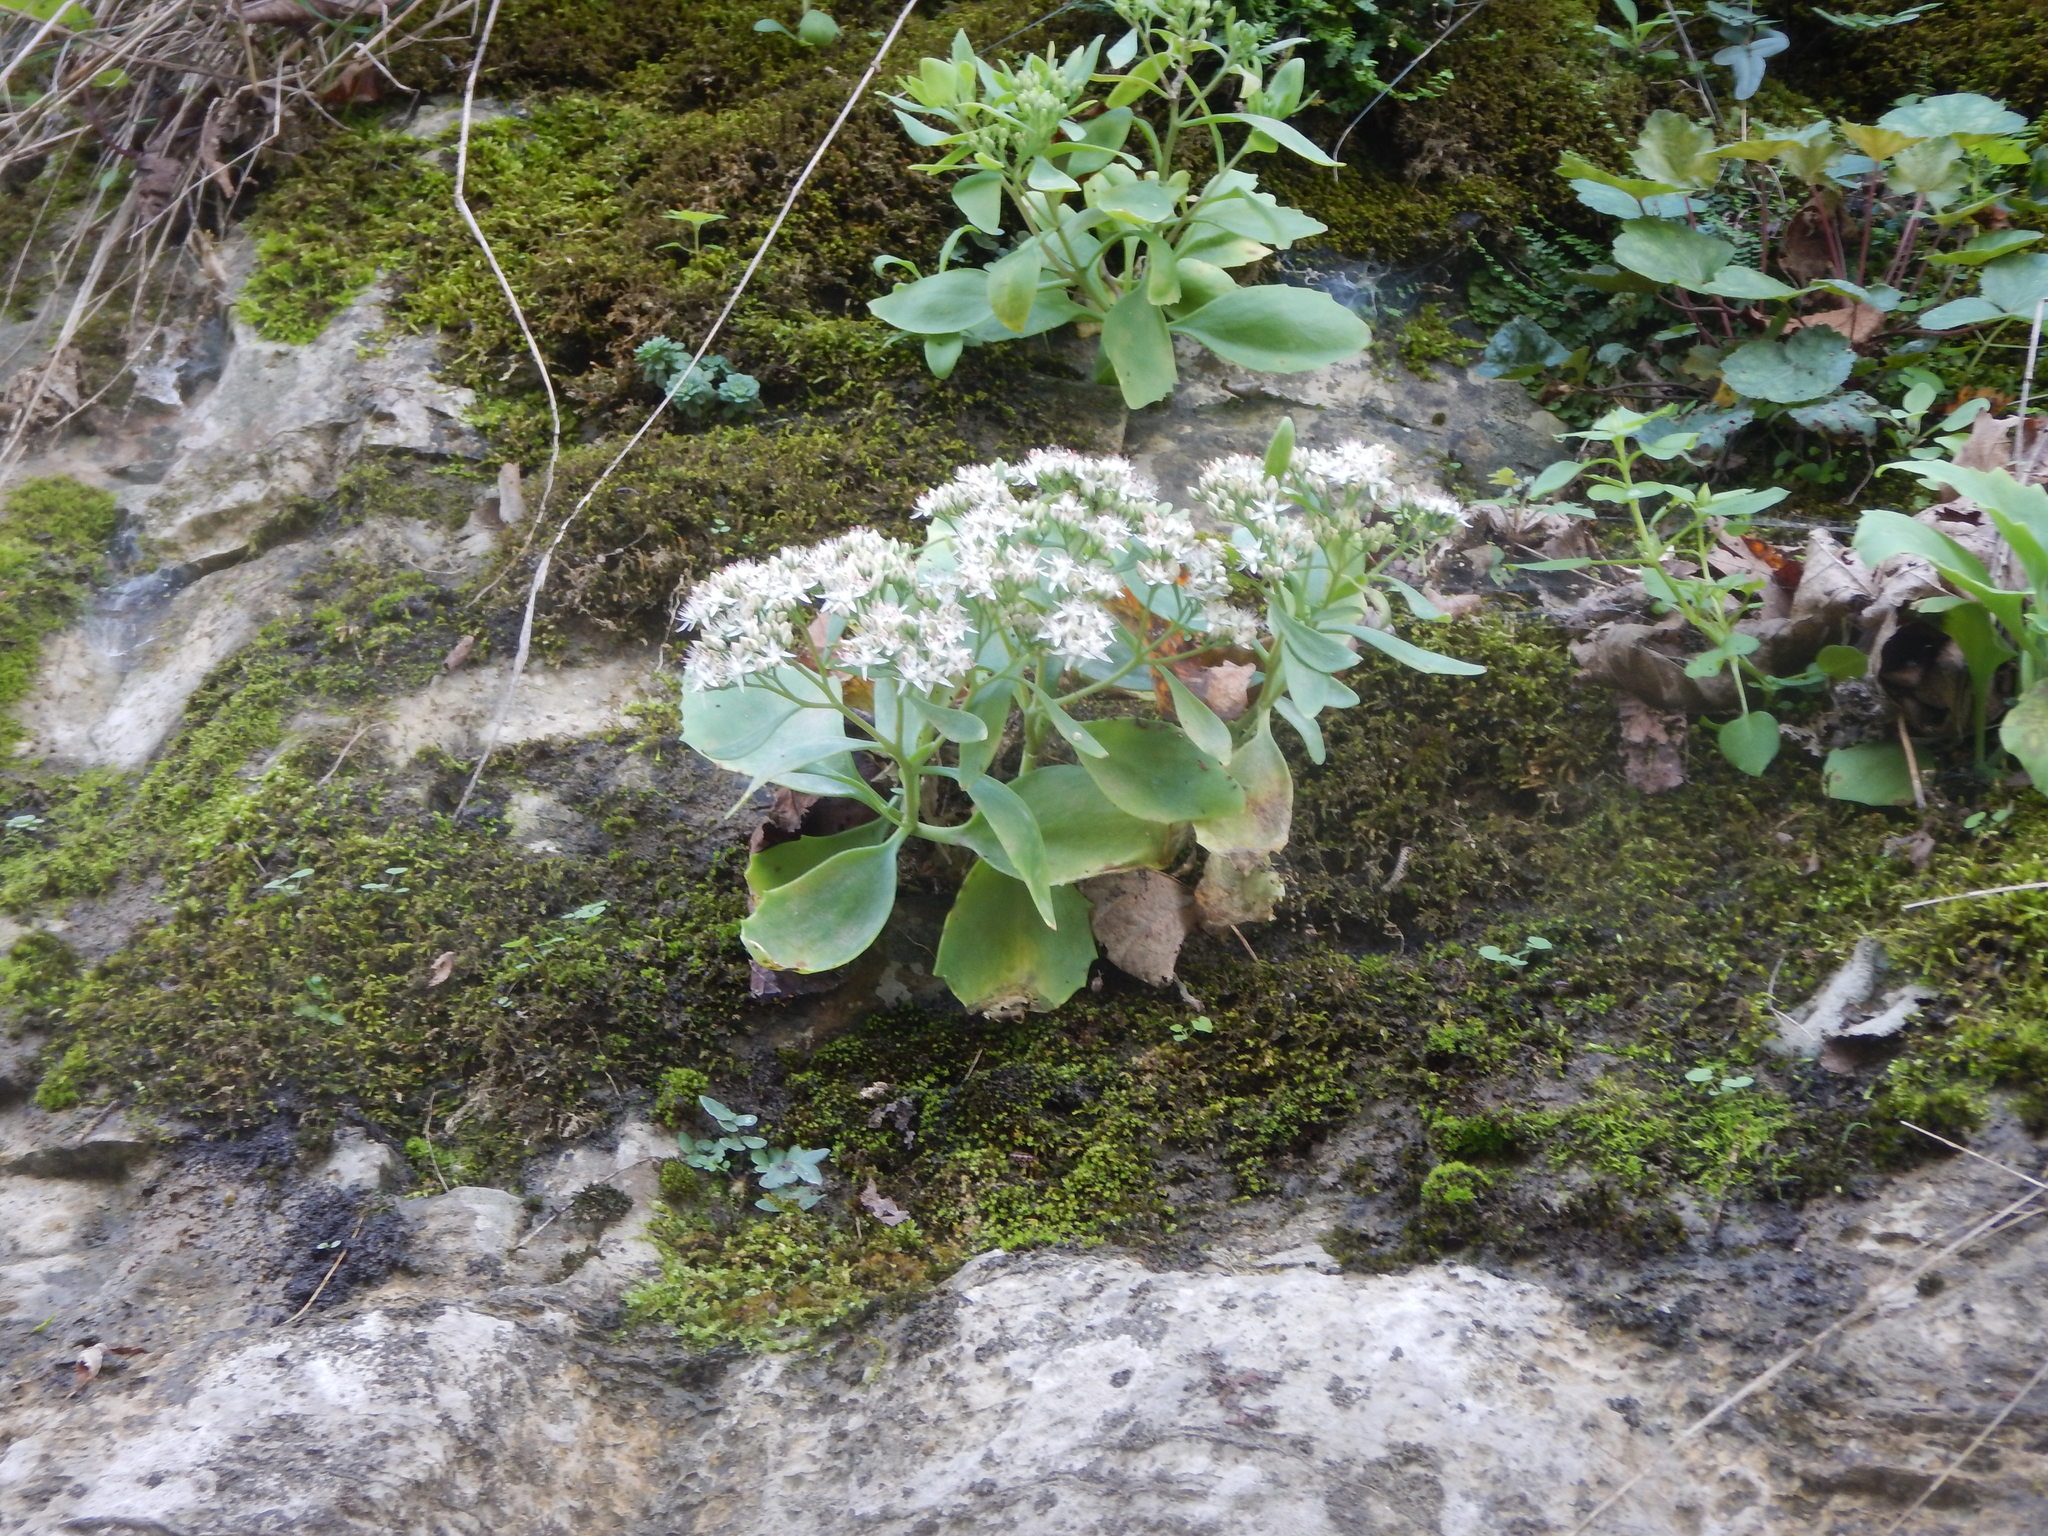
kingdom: Plantae
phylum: Tracheophyta
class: Magnoliopsida
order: Saxifragales
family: Crassulaceae
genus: Hylotelephium
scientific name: Hylotelephium telephioides
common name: Allegheny stonecrop
